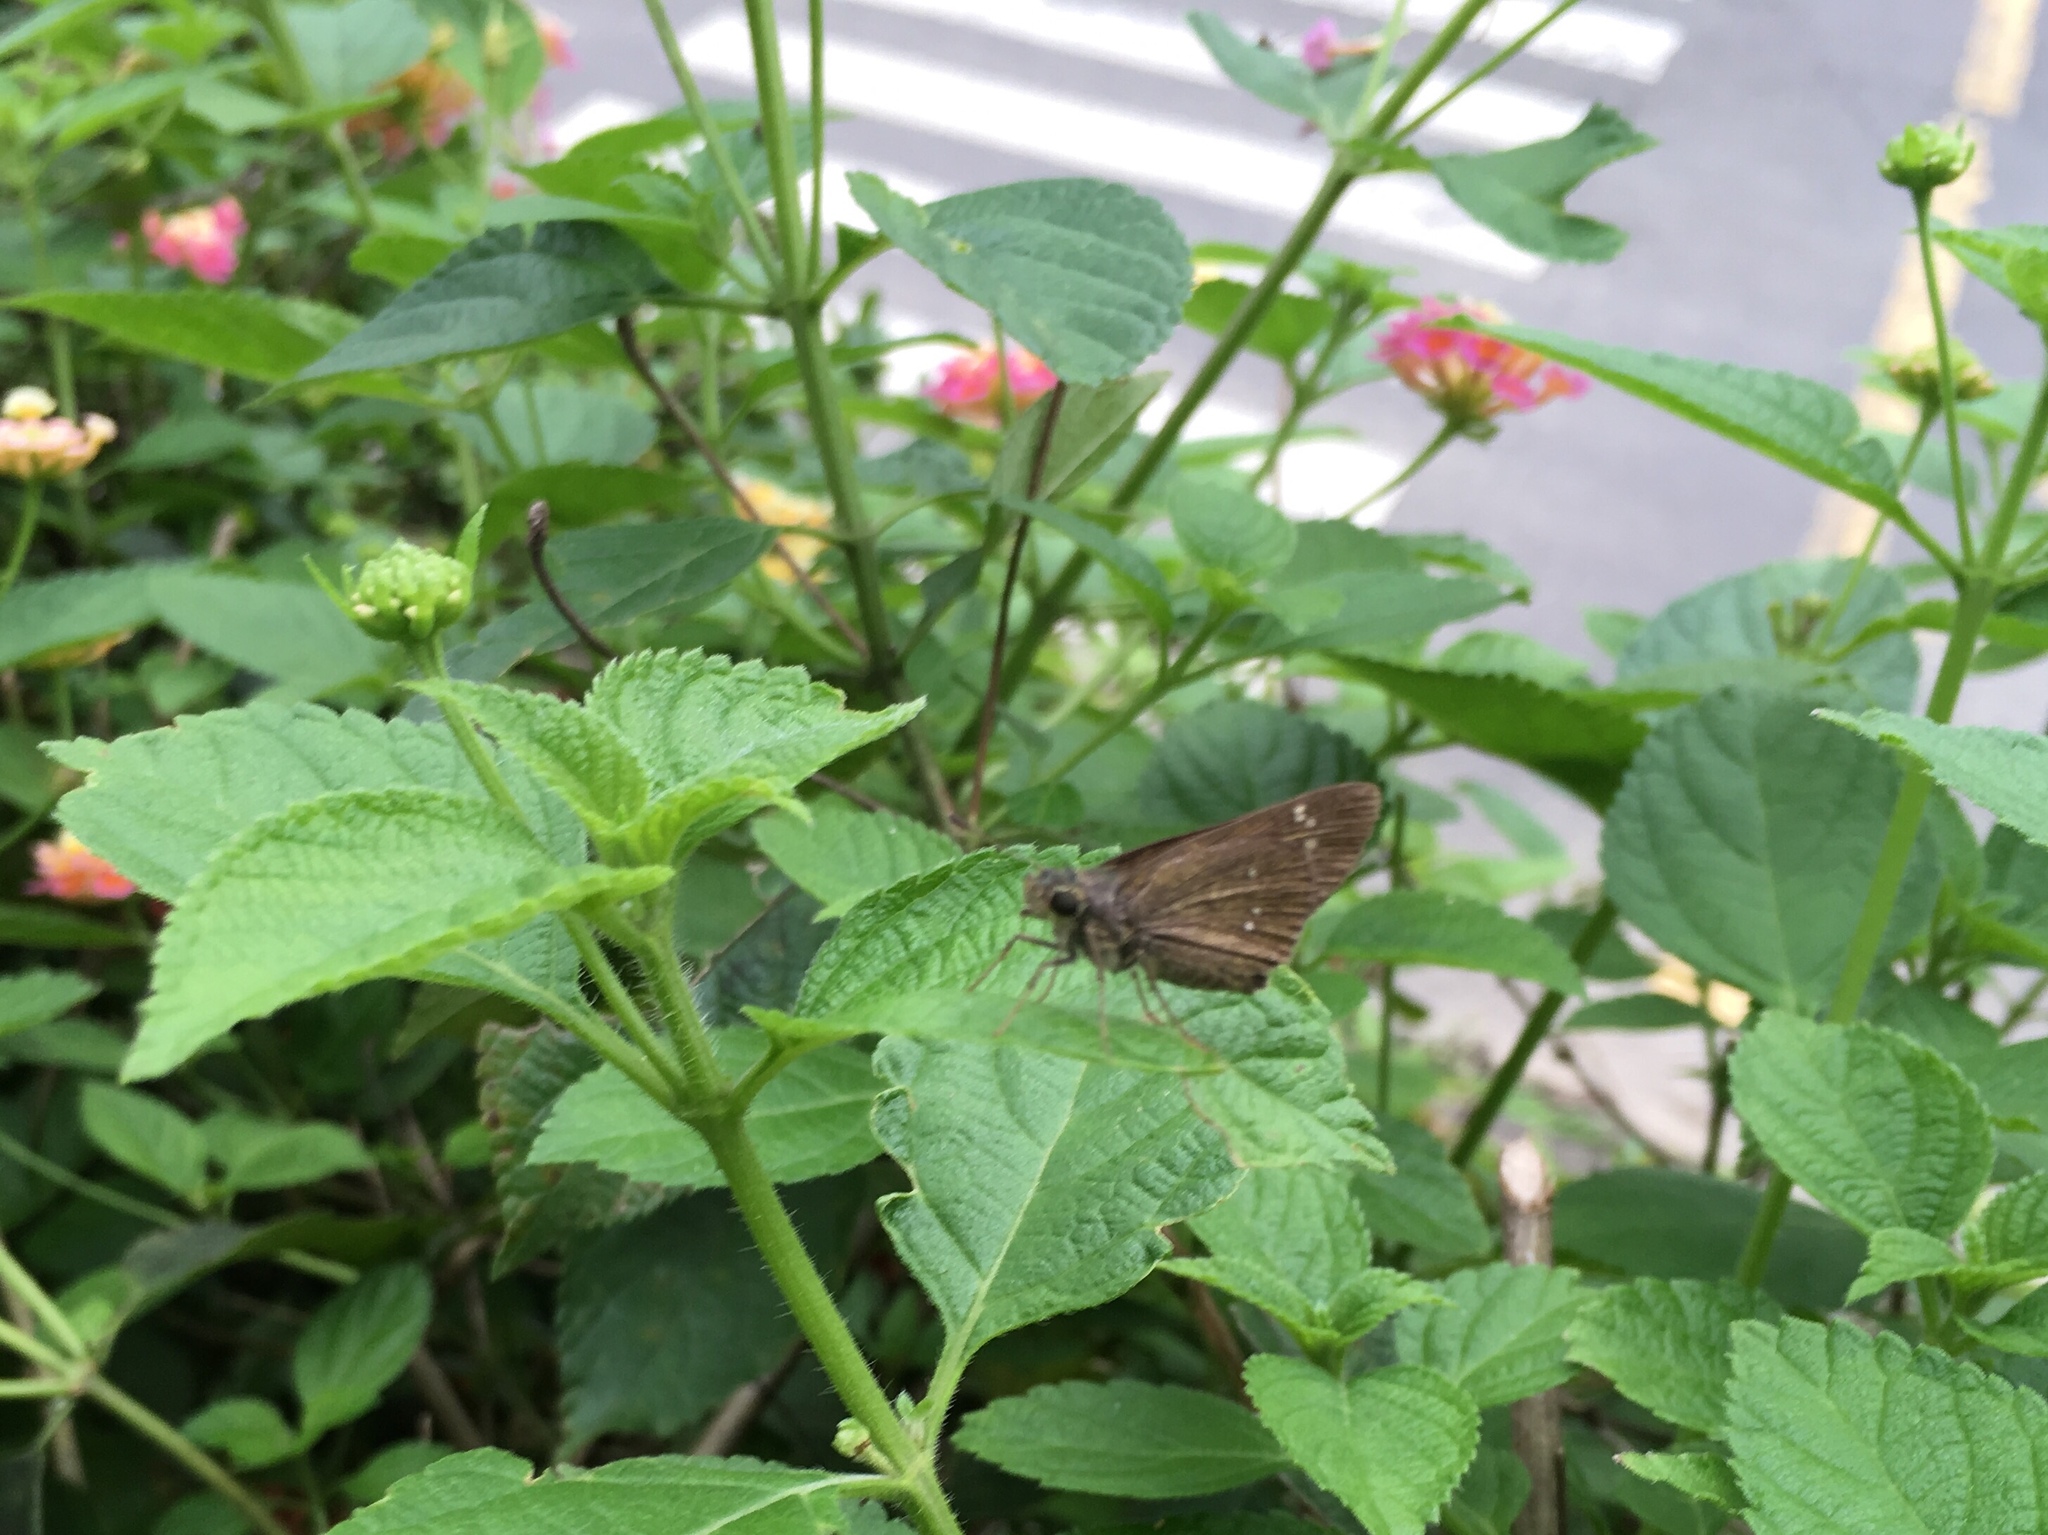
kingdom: Animalia
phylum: Arthropoda
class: Insecta
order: Lepidoptera
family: Hesperiidae
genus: Borbo
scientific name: Borbo cinnara
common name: Formosan swift
